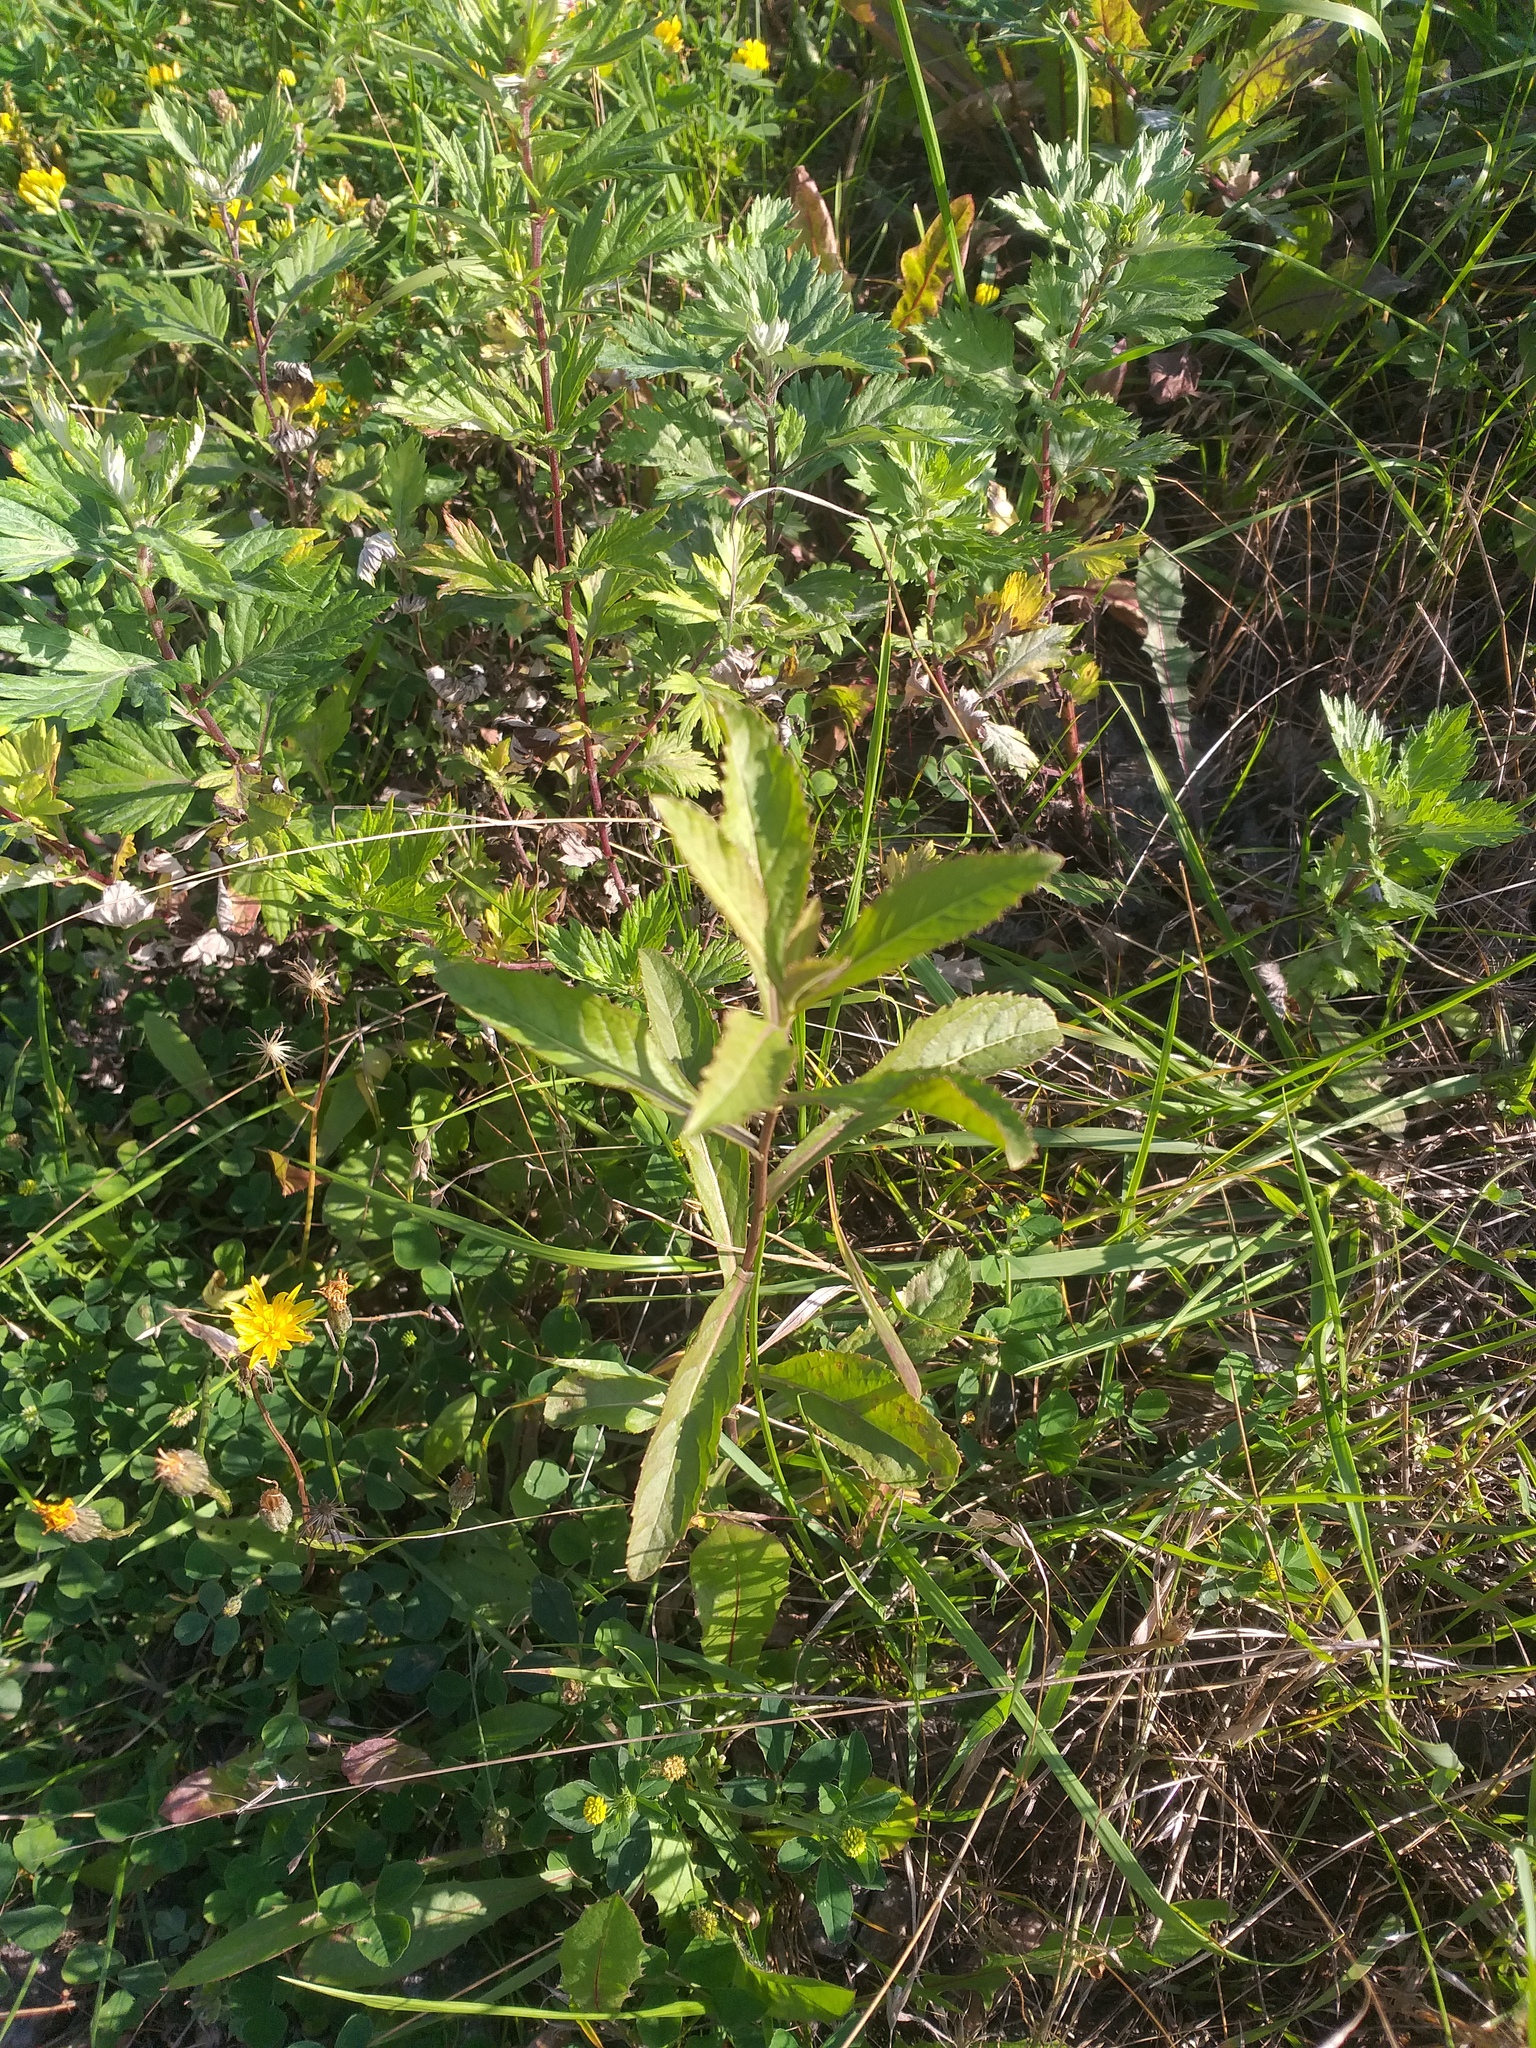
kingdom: Plantae
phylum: Tracheophyta
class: Magnoliopsida
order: Brassicales
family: Brassicaceae
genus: Rorippa
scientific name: Rorippa austriaca
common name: Austrian yellow-cress
